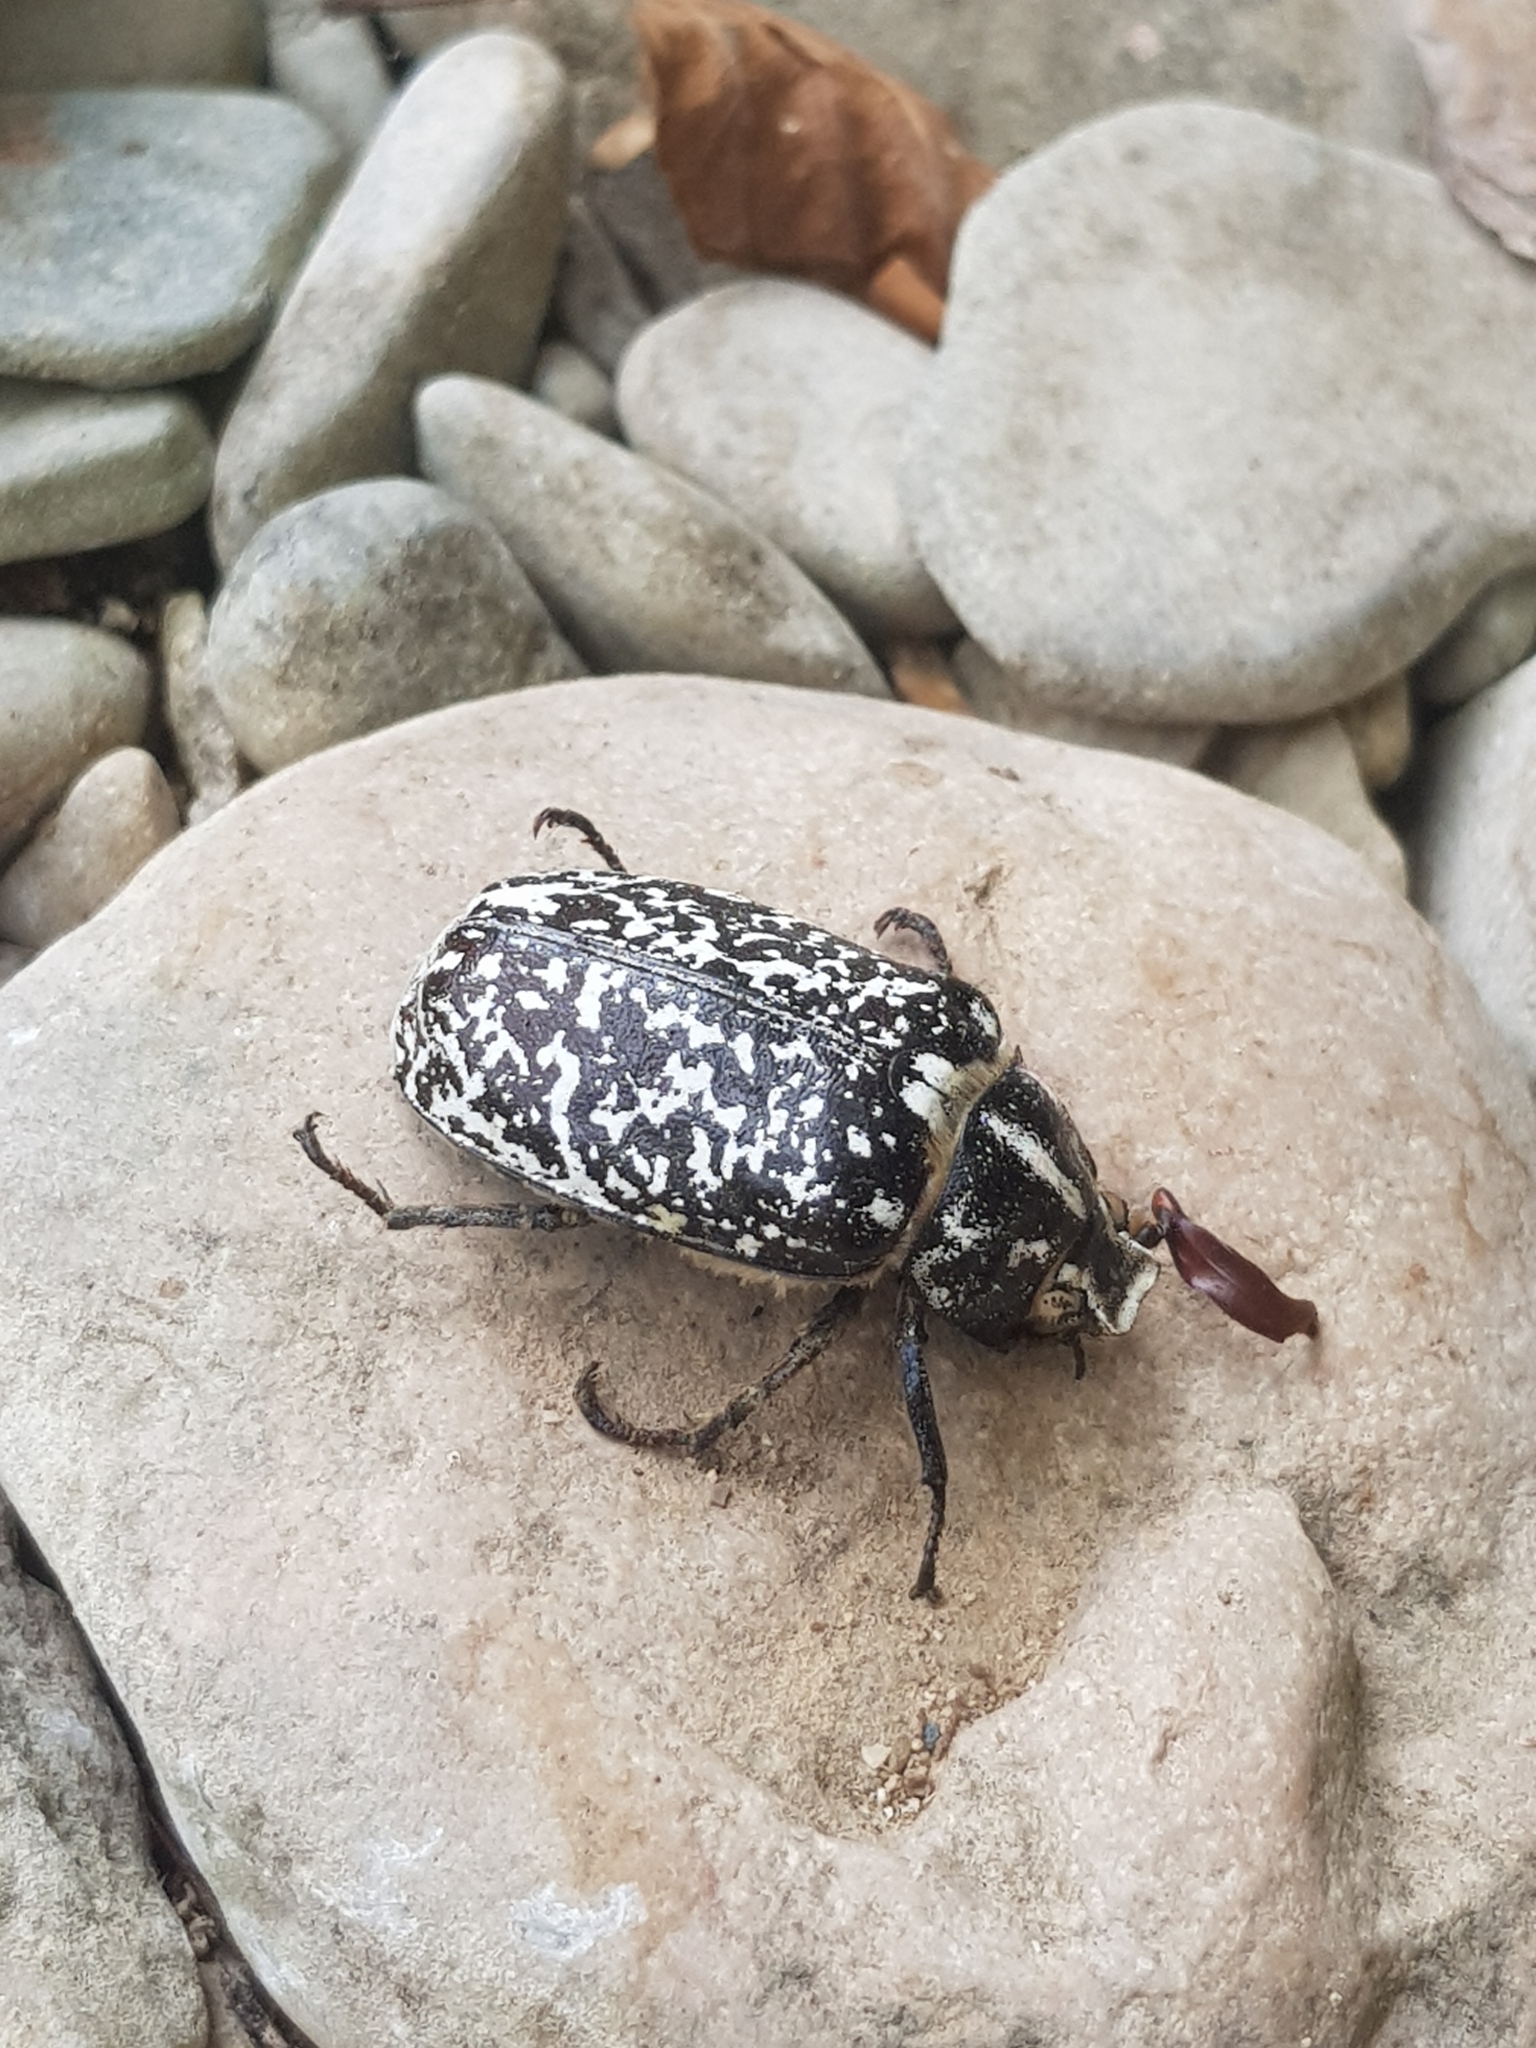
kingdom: Animalia
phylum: Arthropoda
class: Insecta
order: Coleoptera
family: Scarabaeidae
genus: Polyphylla
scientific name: Polyphylla fullo
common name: Pine chafer
